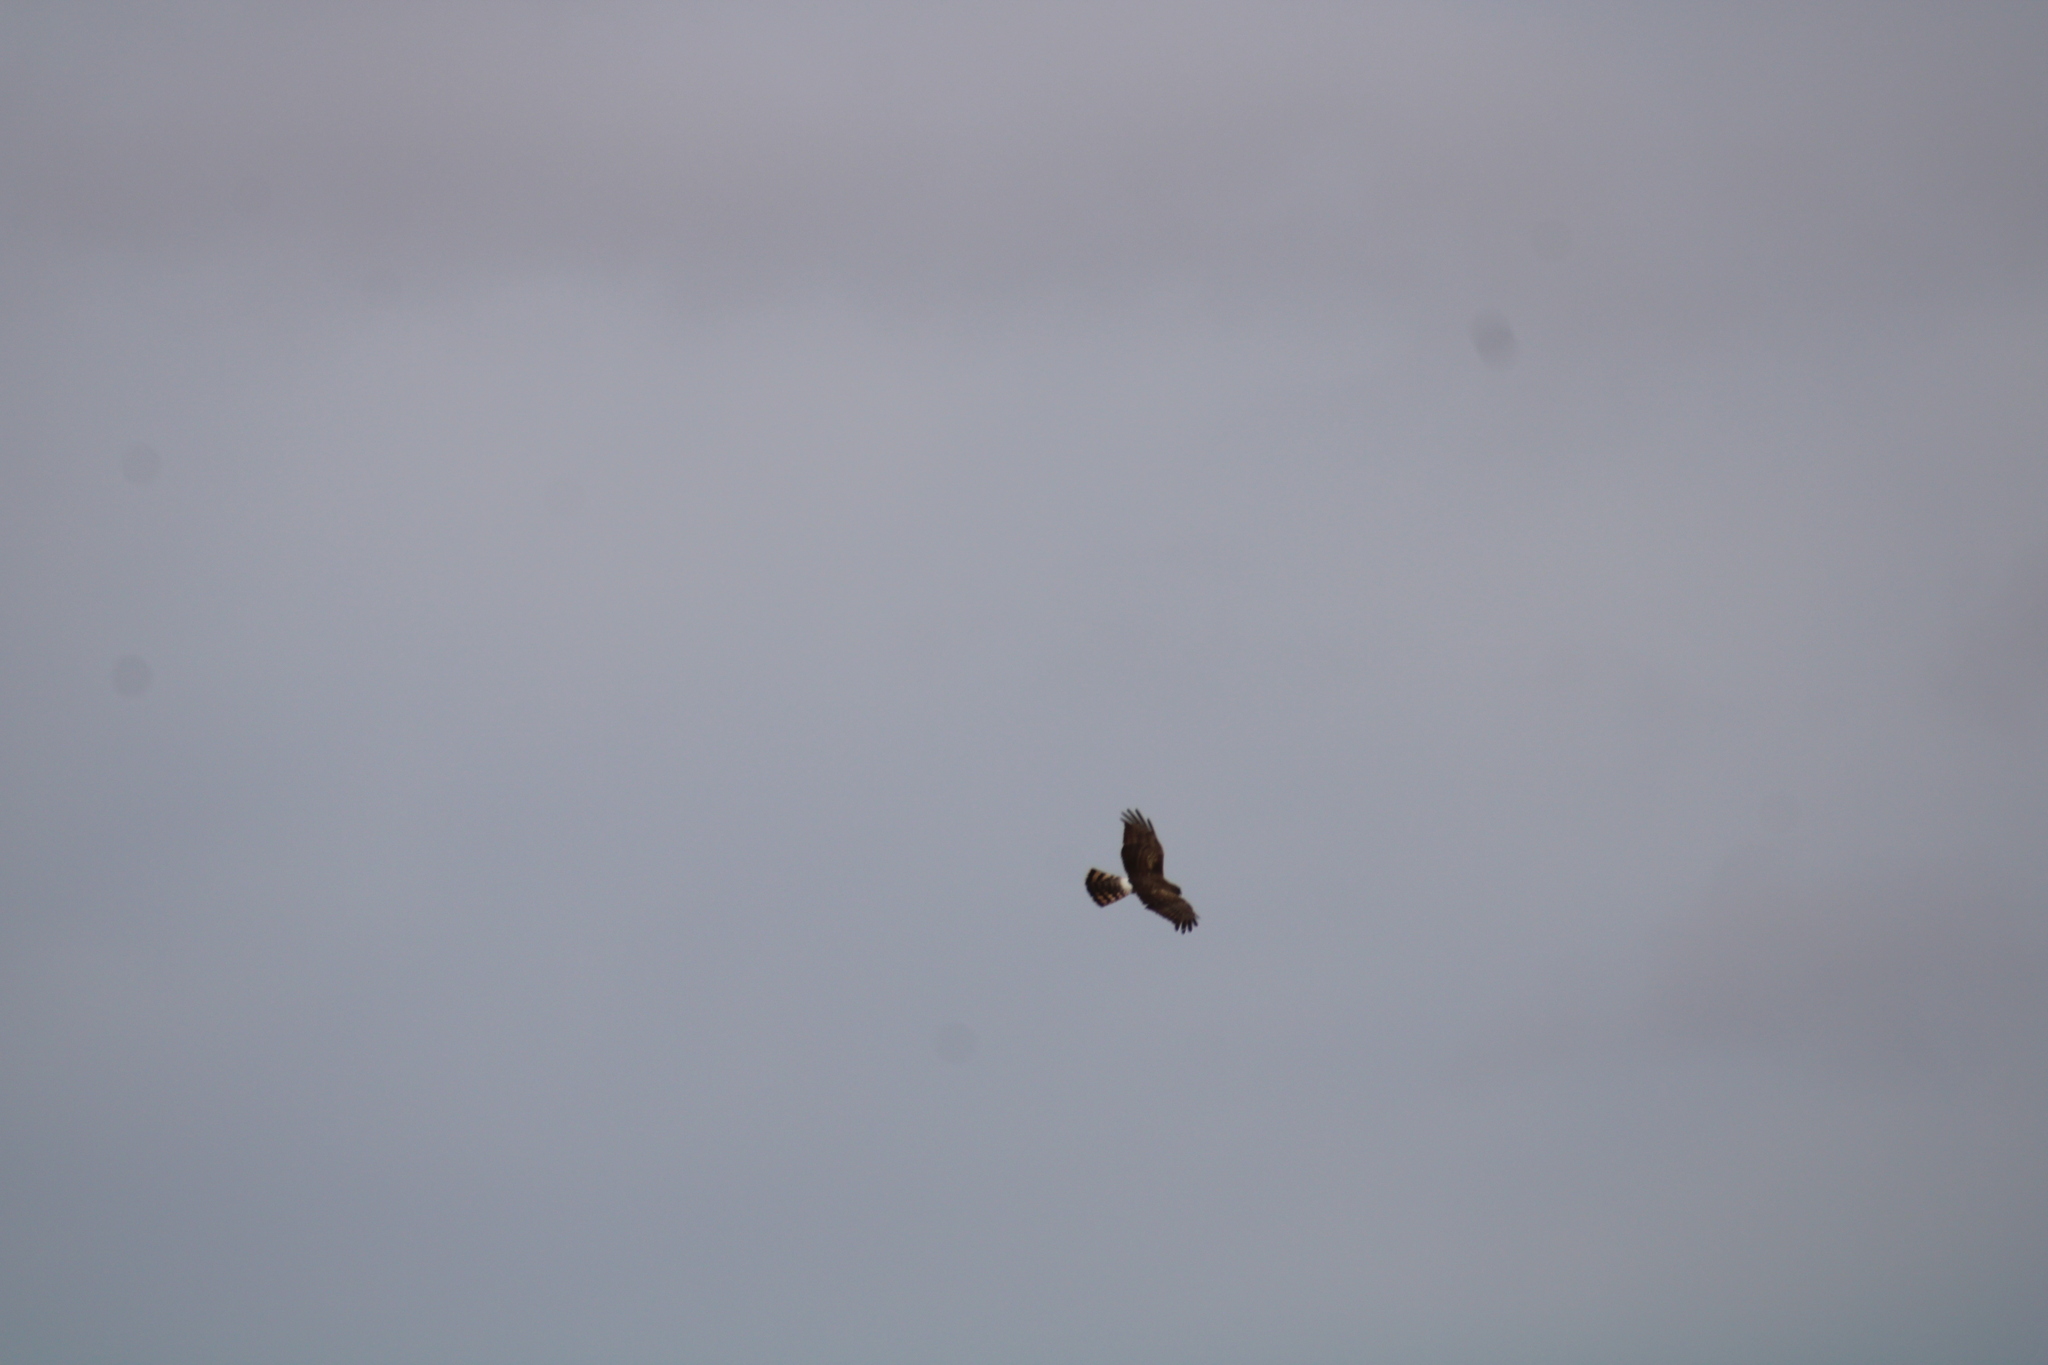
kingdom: Animalia
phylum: Chordata
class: Aves
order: Accipitriformes
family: Accipitridae
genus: Circus
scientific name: Circus cyaneus
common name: Hen harrier
